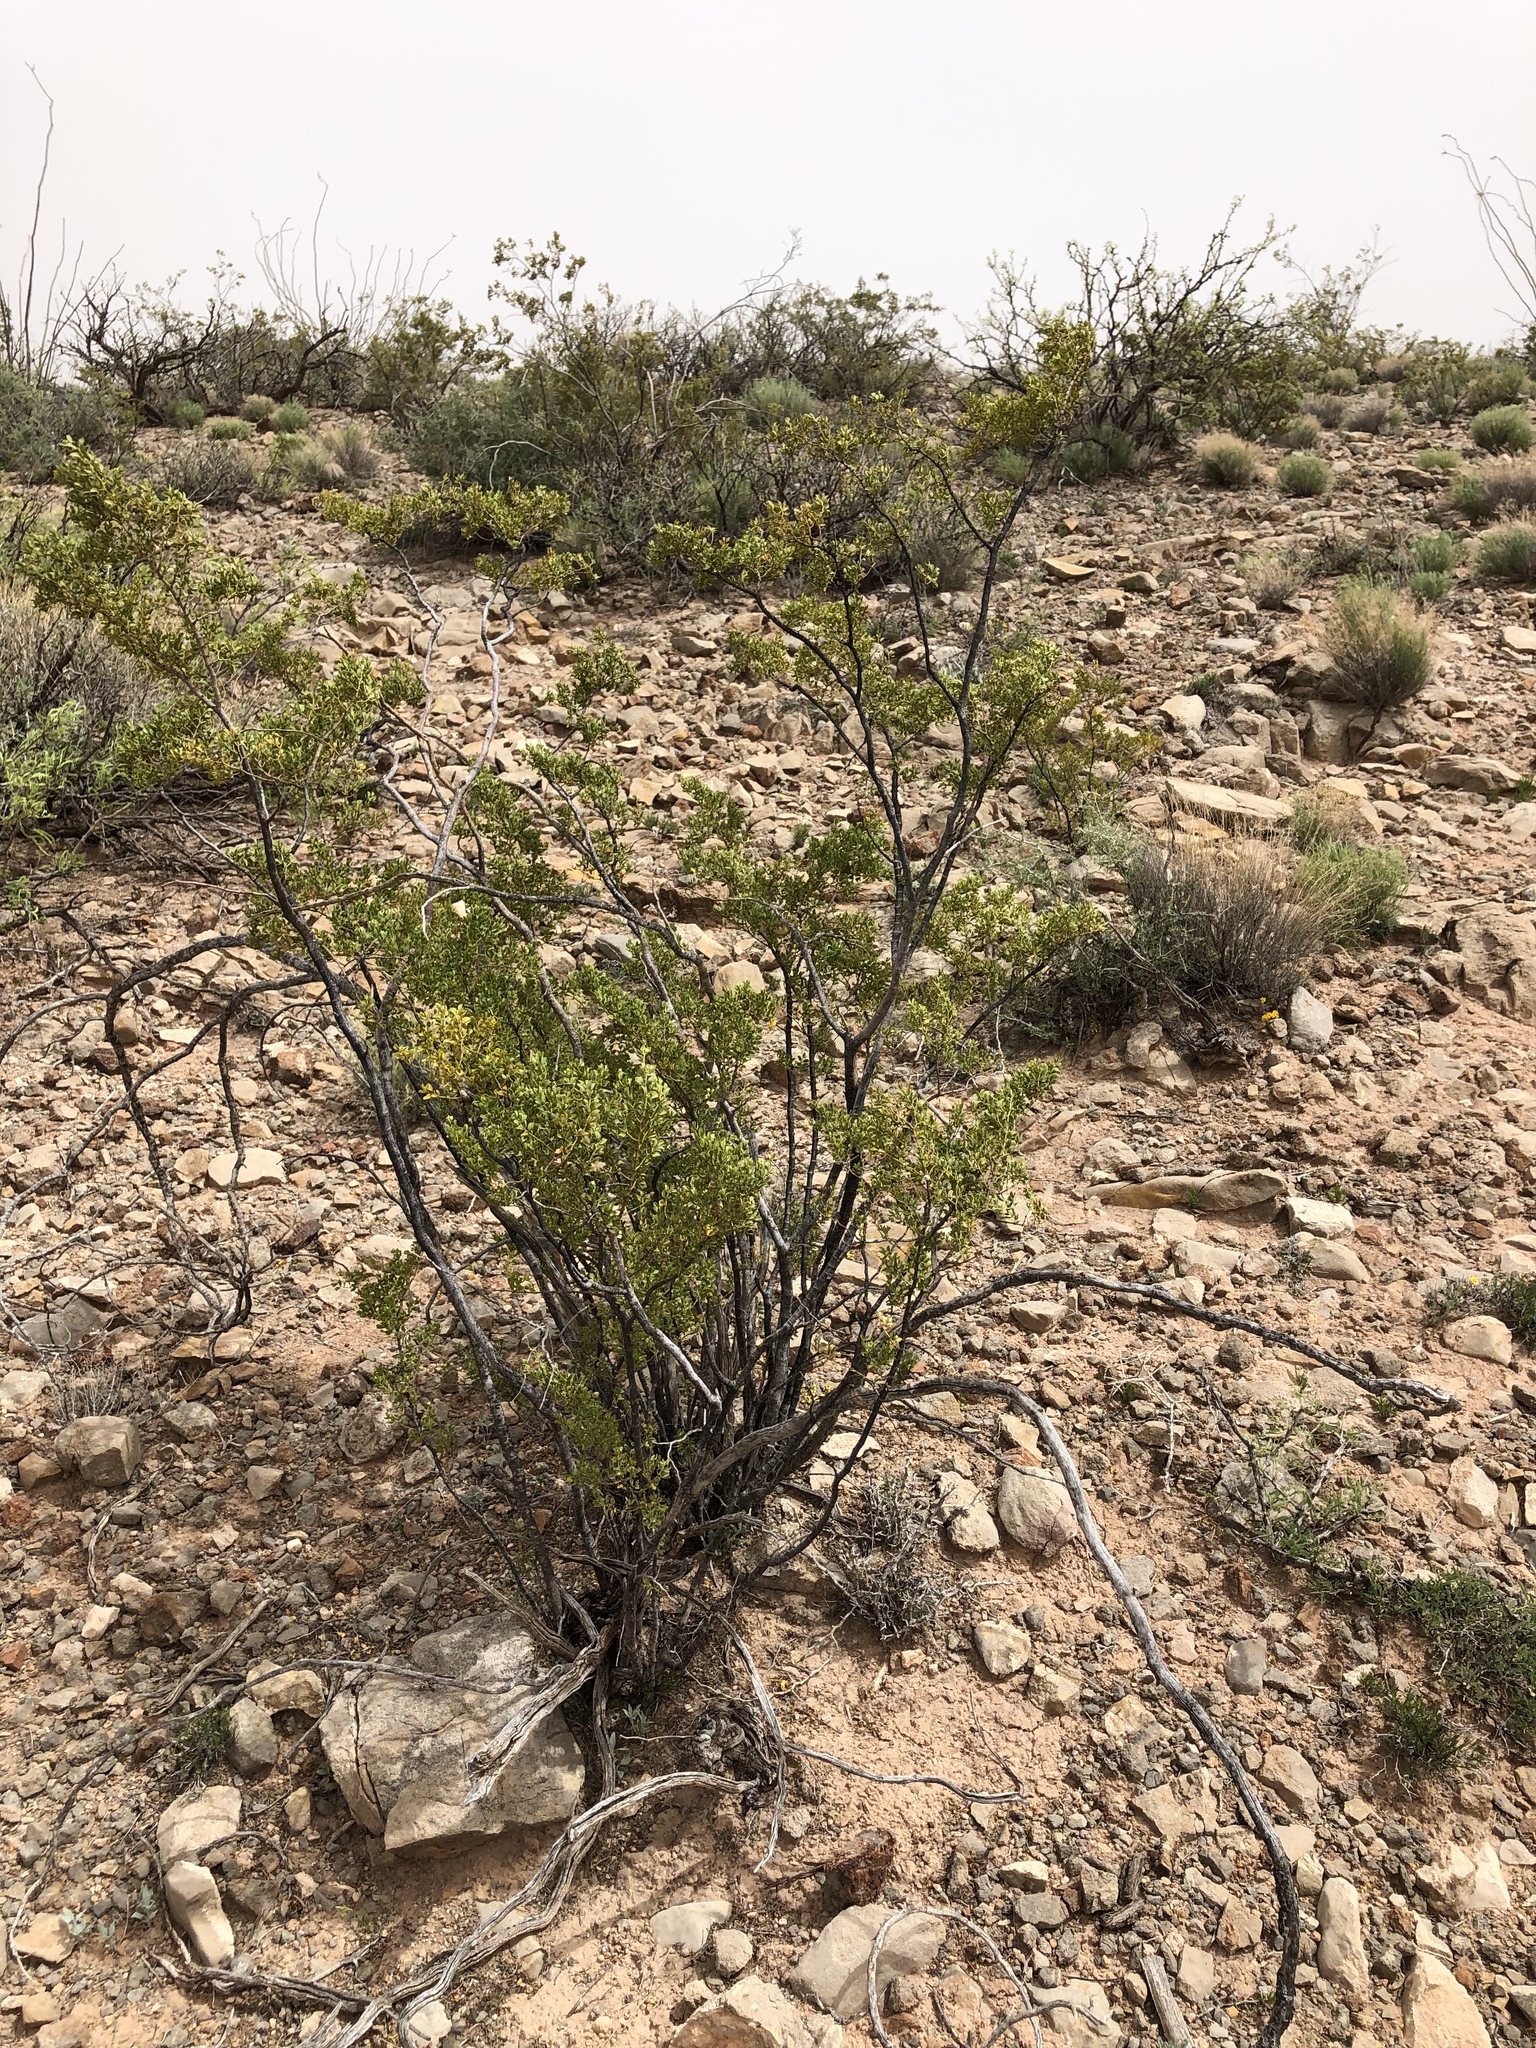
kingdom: Plantae
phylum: Tracheophyta
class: Magnoliopsida
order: Zygophyllales
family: Zygophyllaceae
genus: Larrea
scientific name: Larrea tridentata
